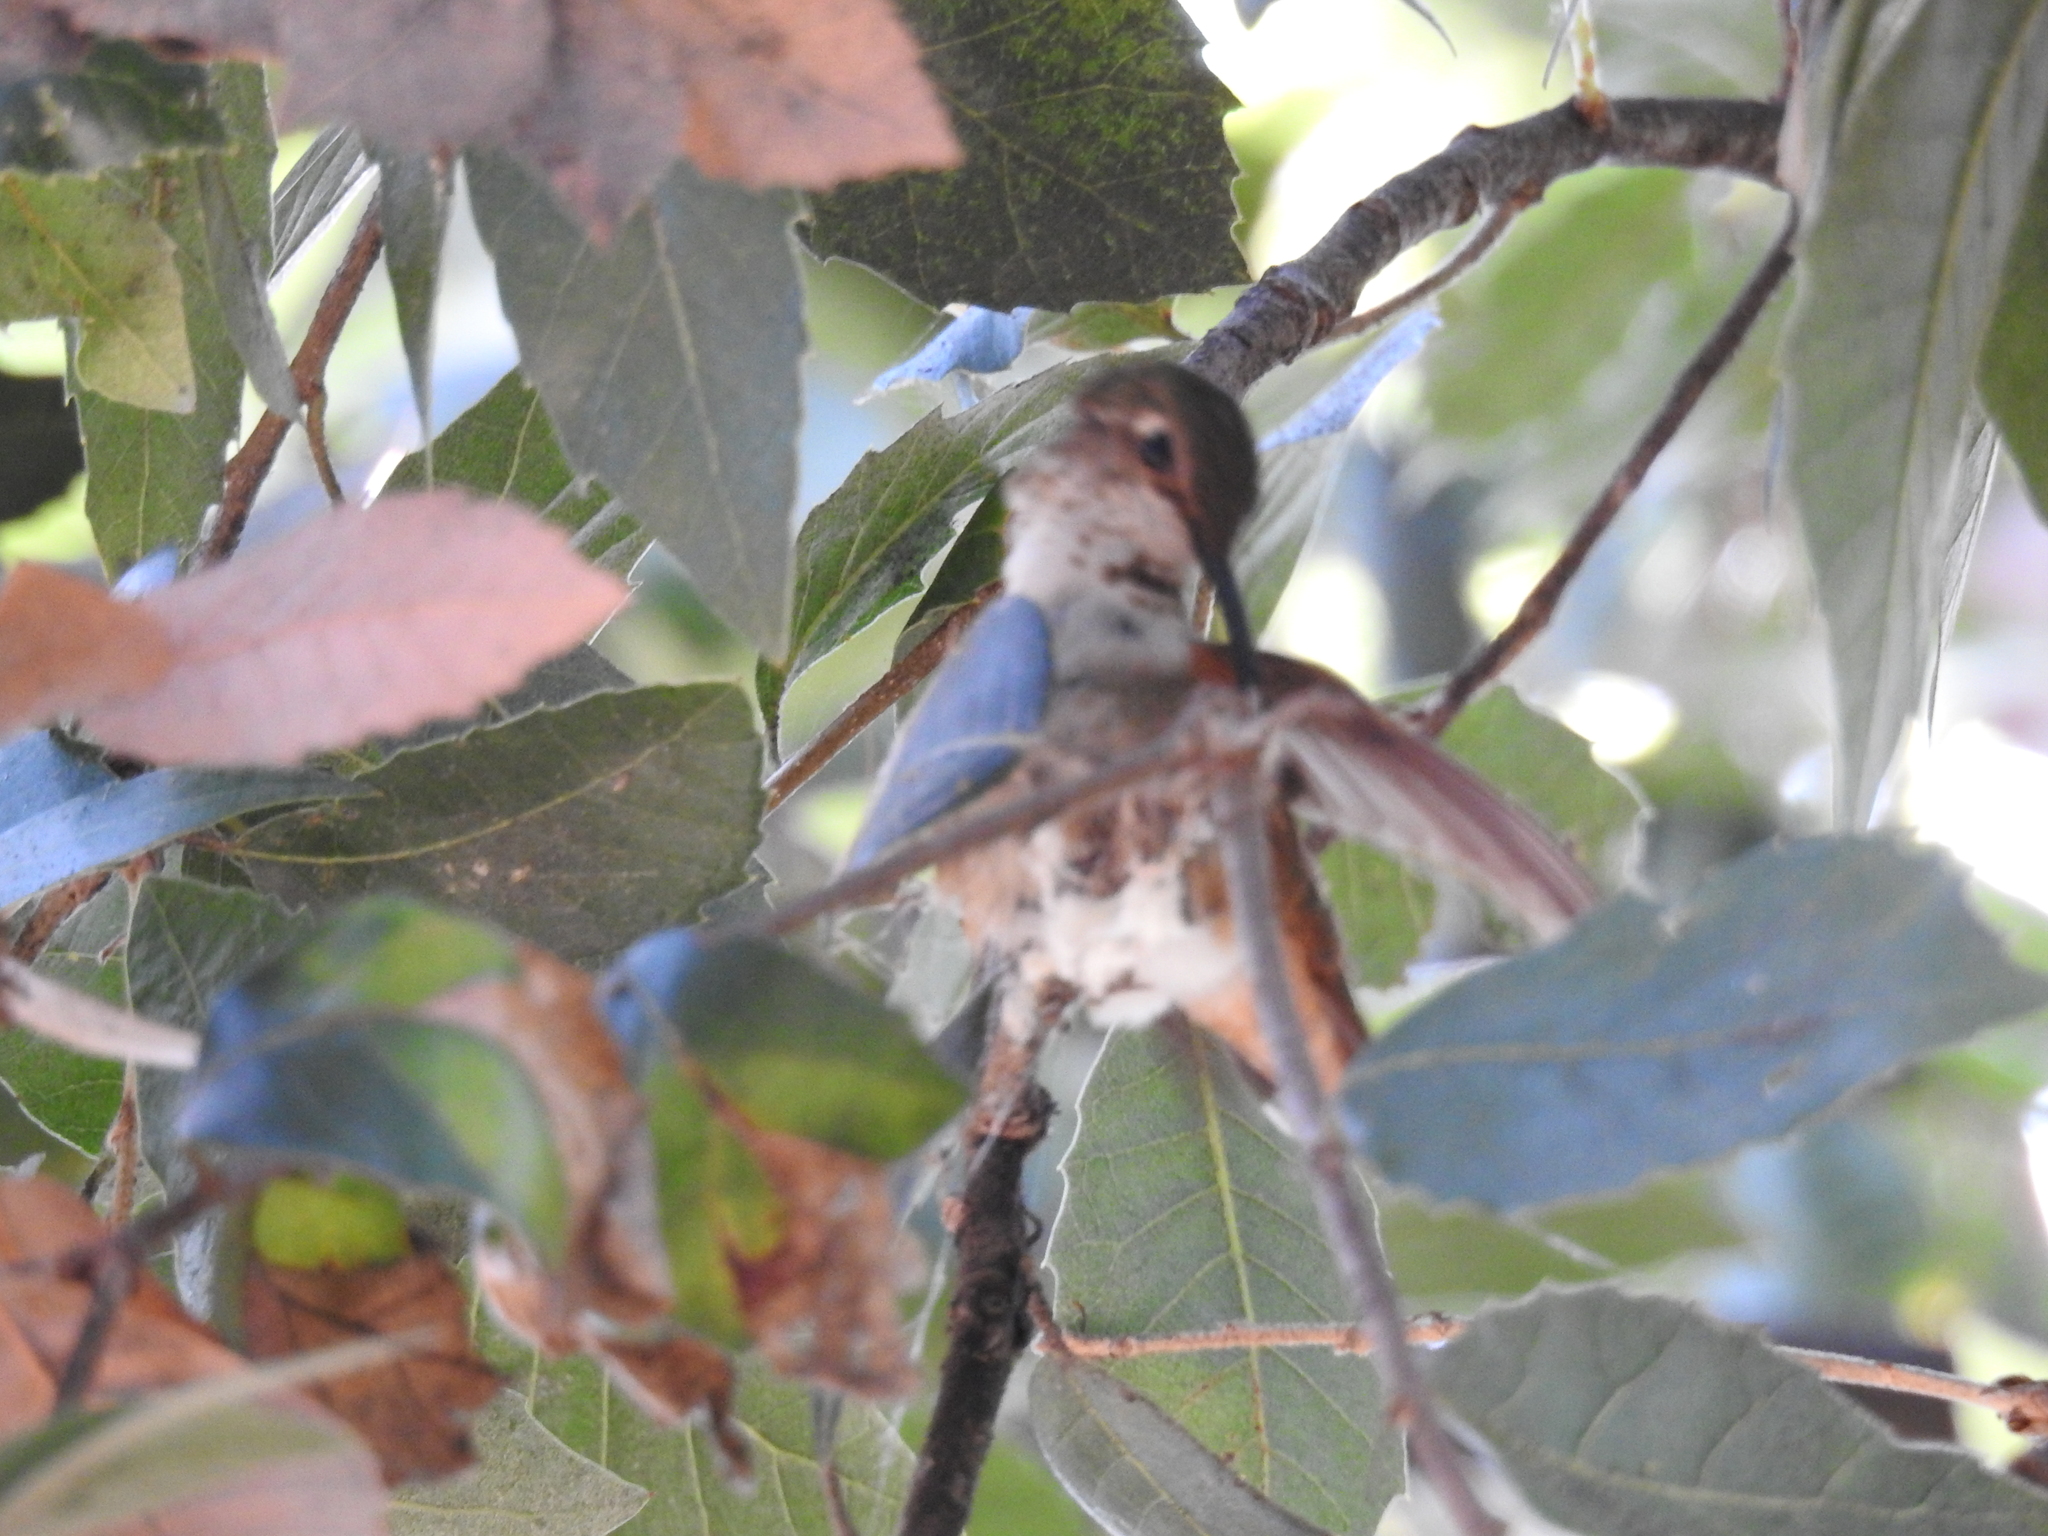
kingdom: Animalia
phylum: Chordata
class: Aves
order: Apodiformes
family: Trochilidae
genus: Selasphorus
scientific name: Selasphorus sasin
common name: Allen's hummingbird
